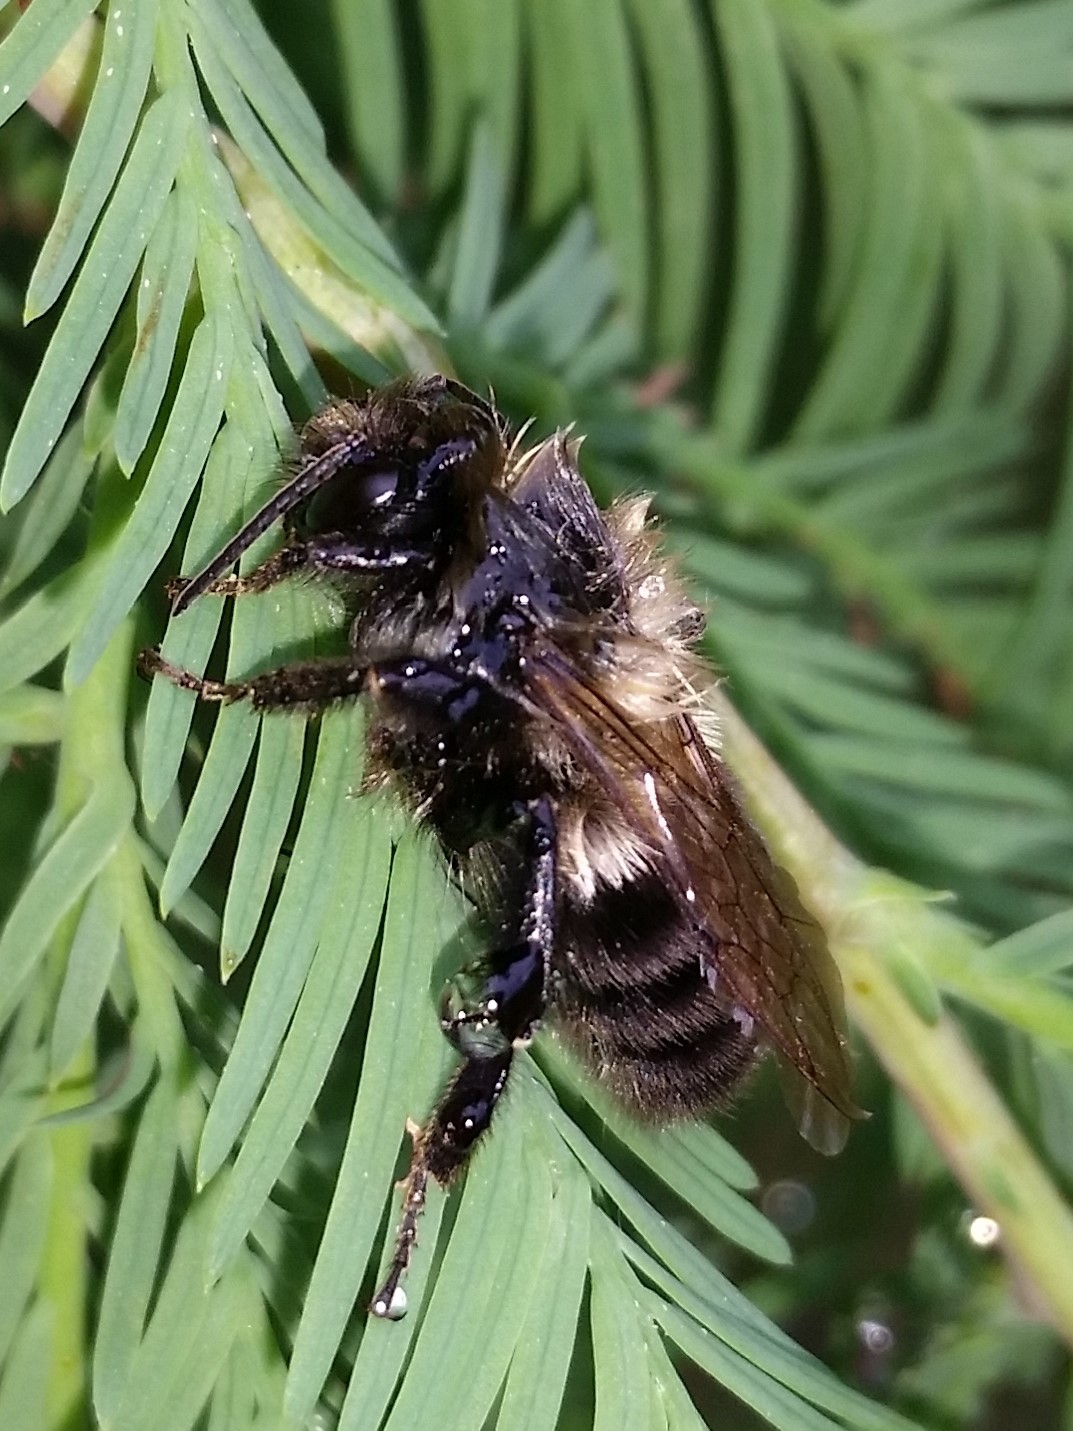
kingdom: Animalia
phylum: Arthropoda
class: Insecta
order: Hymenoptera
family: Apidae
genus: Bombus
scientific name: Bombus impatiens
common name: Common eastern bumble bee
